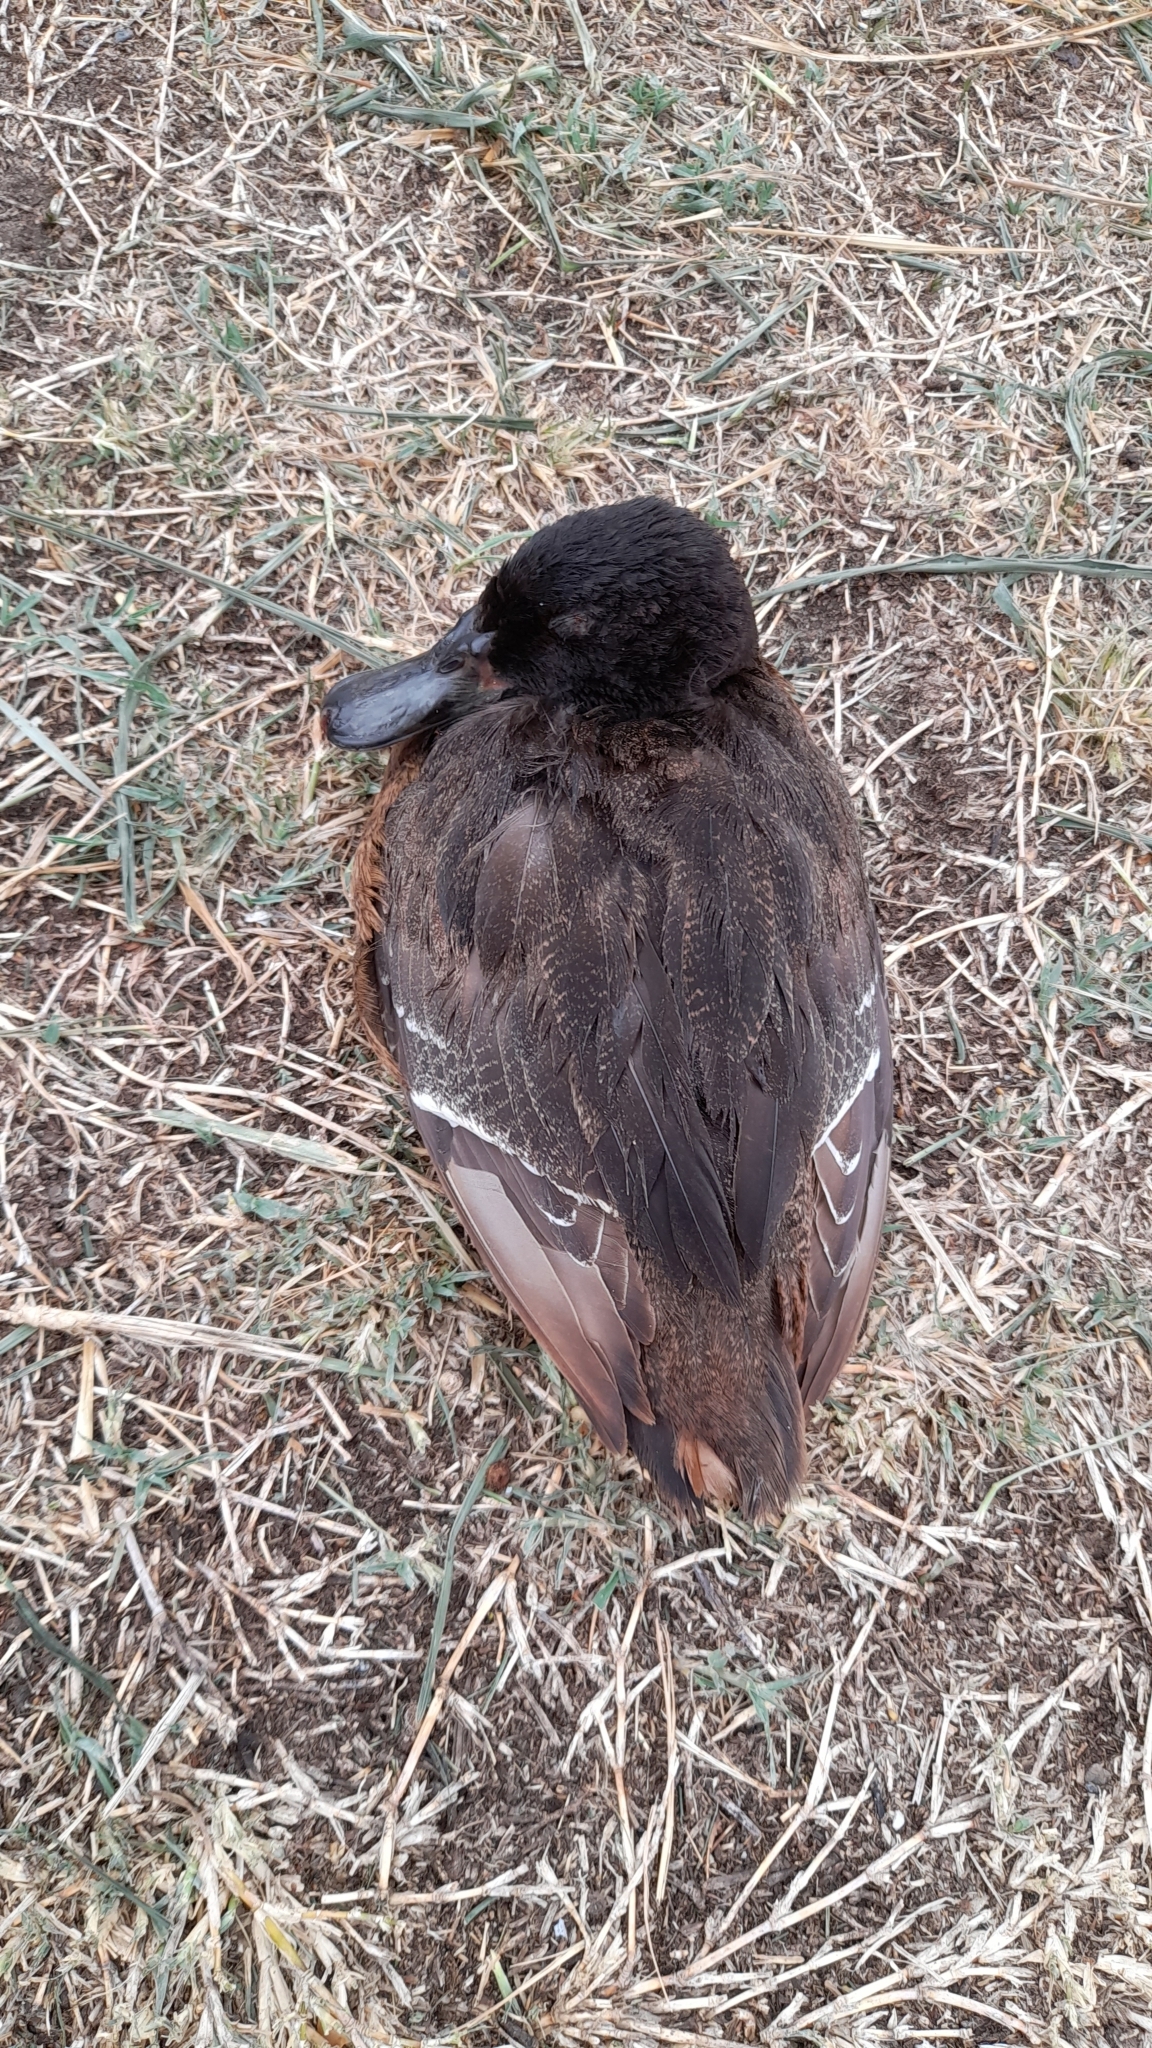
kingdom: Animalia
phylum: Chordata
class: Aves
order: Anseriformes
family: Anatidae
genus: Heteronetta
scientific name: Heteronetta atricapilla
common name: Black-headed duck
